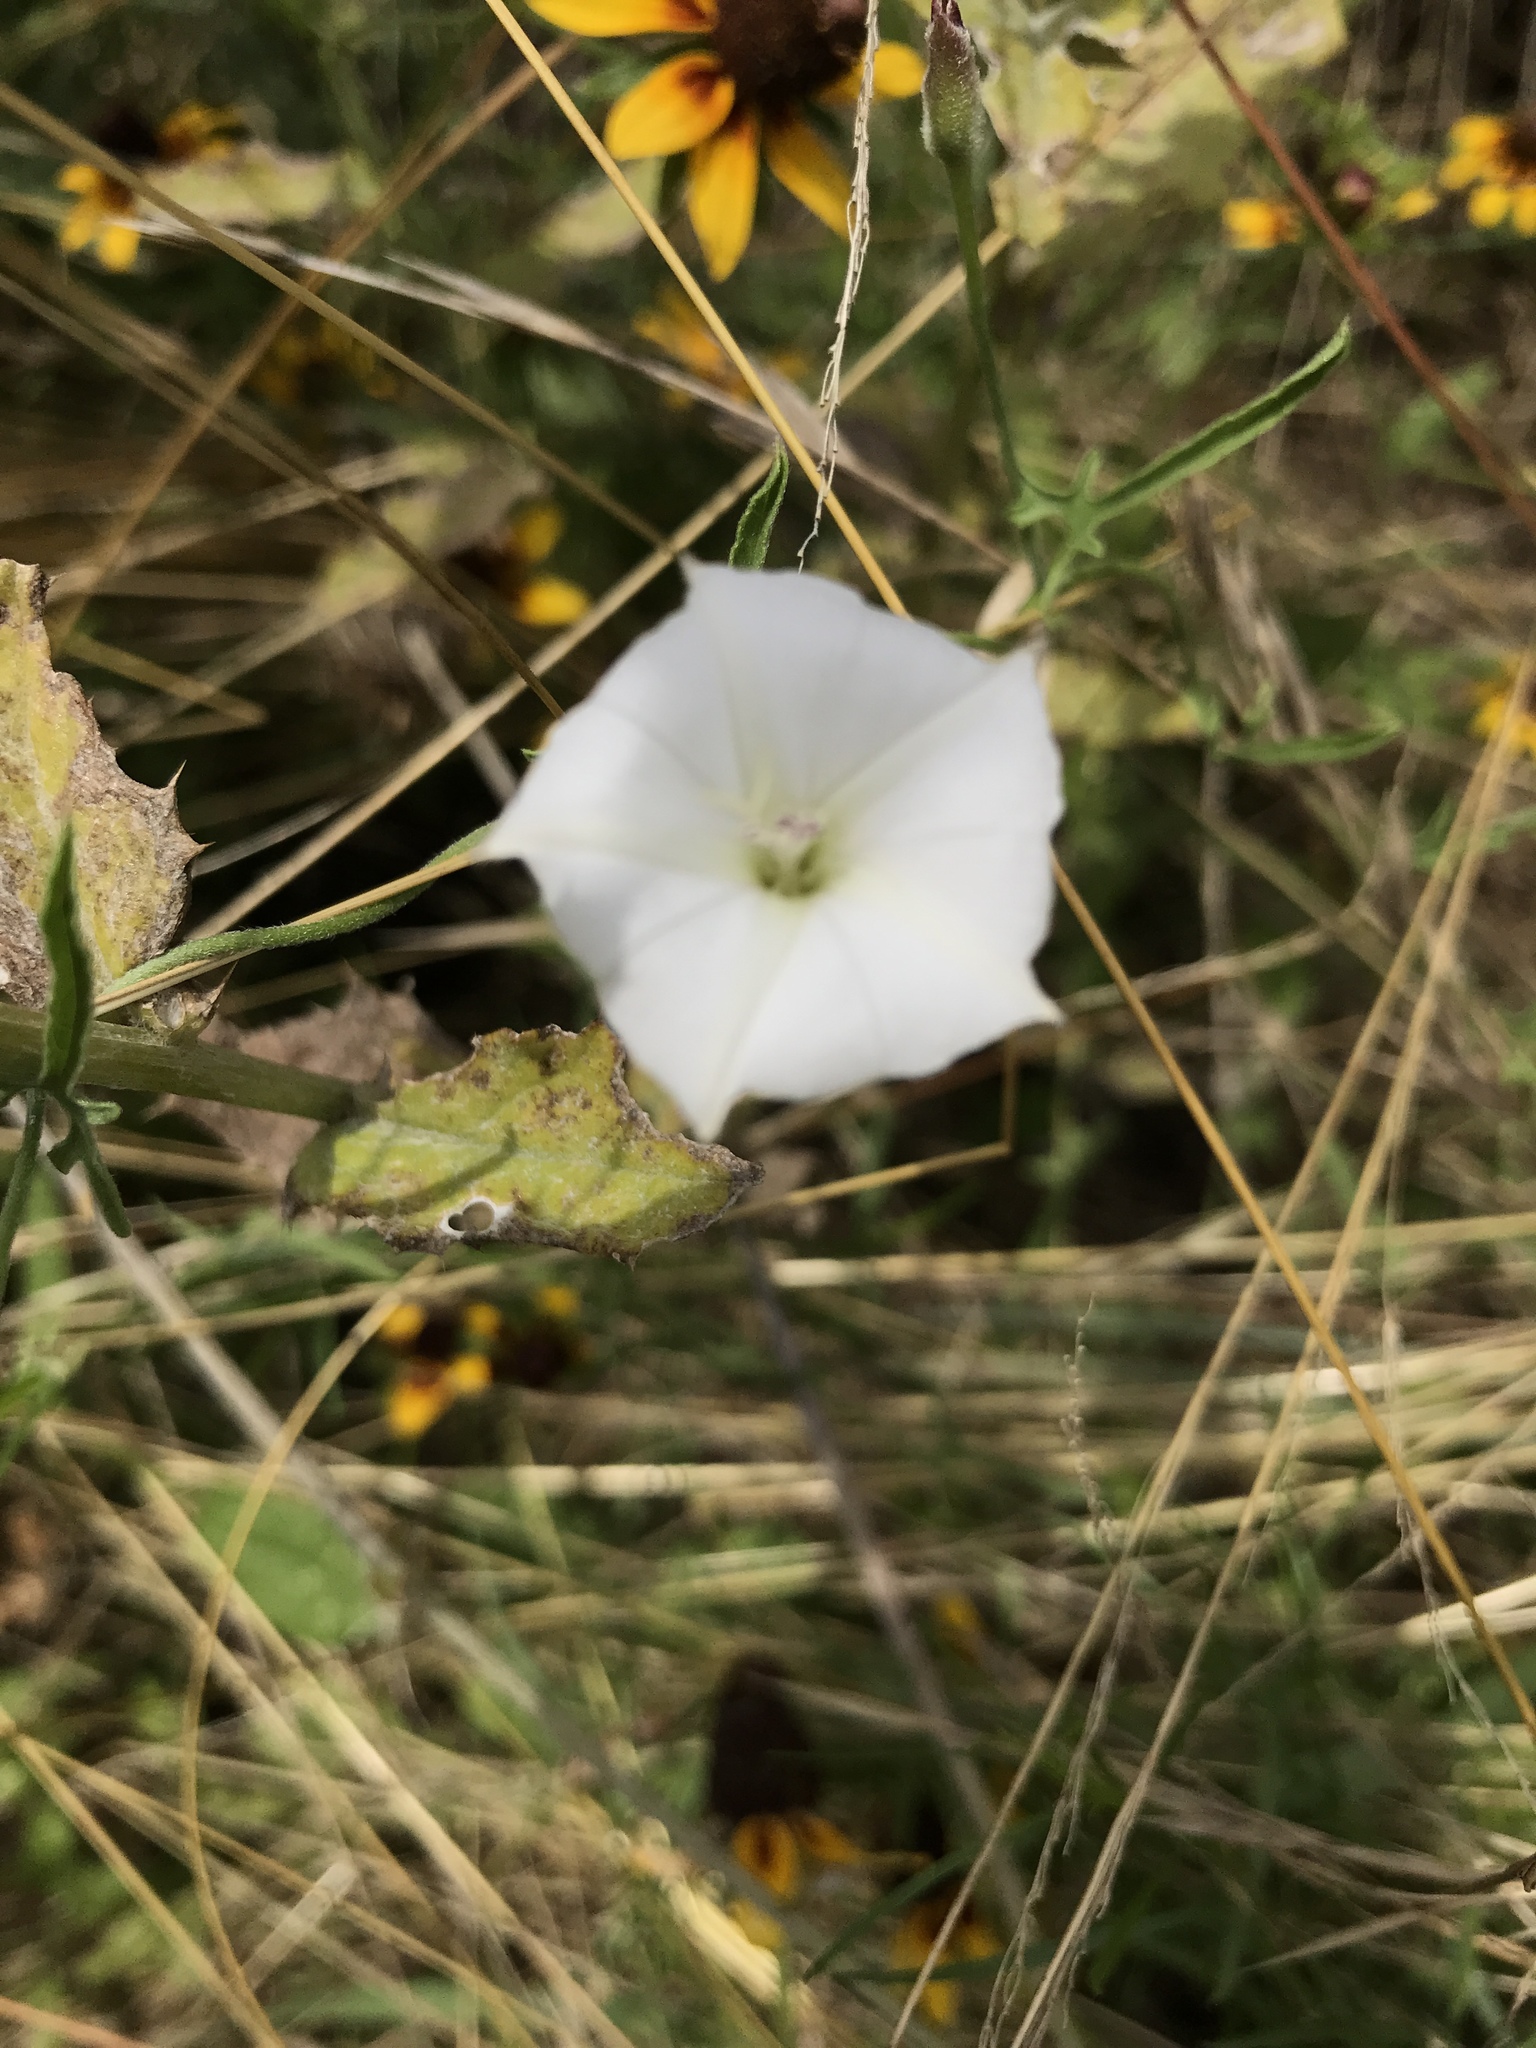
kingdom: Plantae
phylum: Tracheophyta
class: Magnoliopsida
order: Solanales
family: Convolvulaceae
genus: Convolvulus
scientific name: Convolvulus equitans
